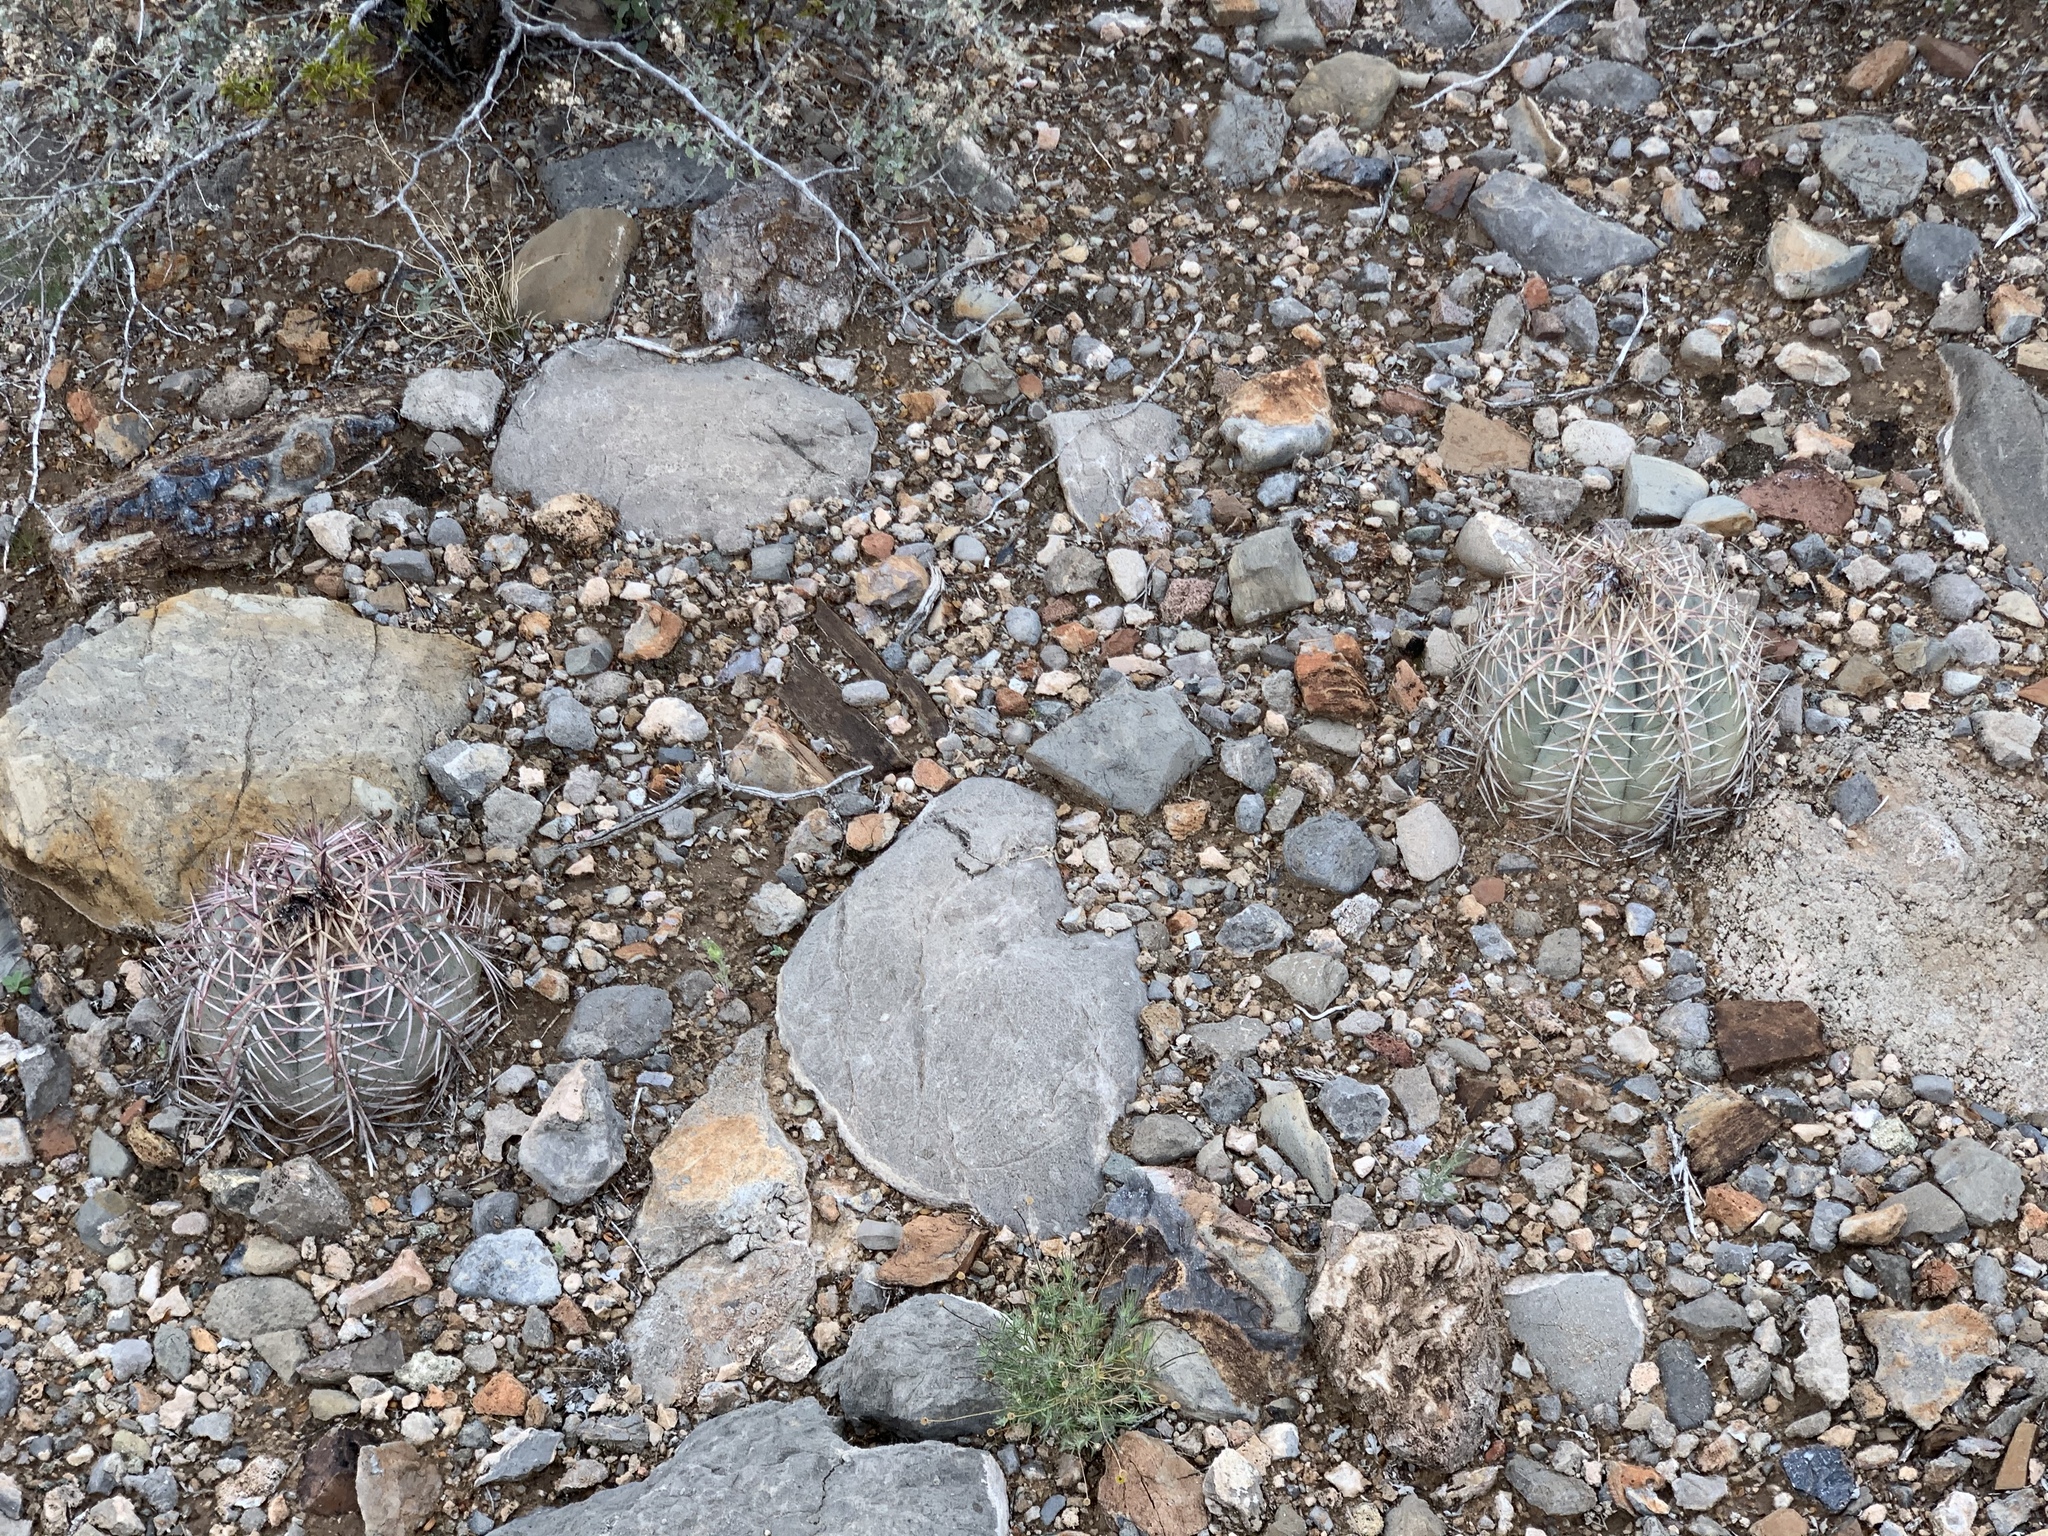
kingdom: Plantae
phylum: Tracheophyta
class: Magnoliopsida
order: Caryophyllales
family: Cactaceae
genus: Echinocactus
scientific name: Echinocactus horizonthalonius
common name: Devilshead
